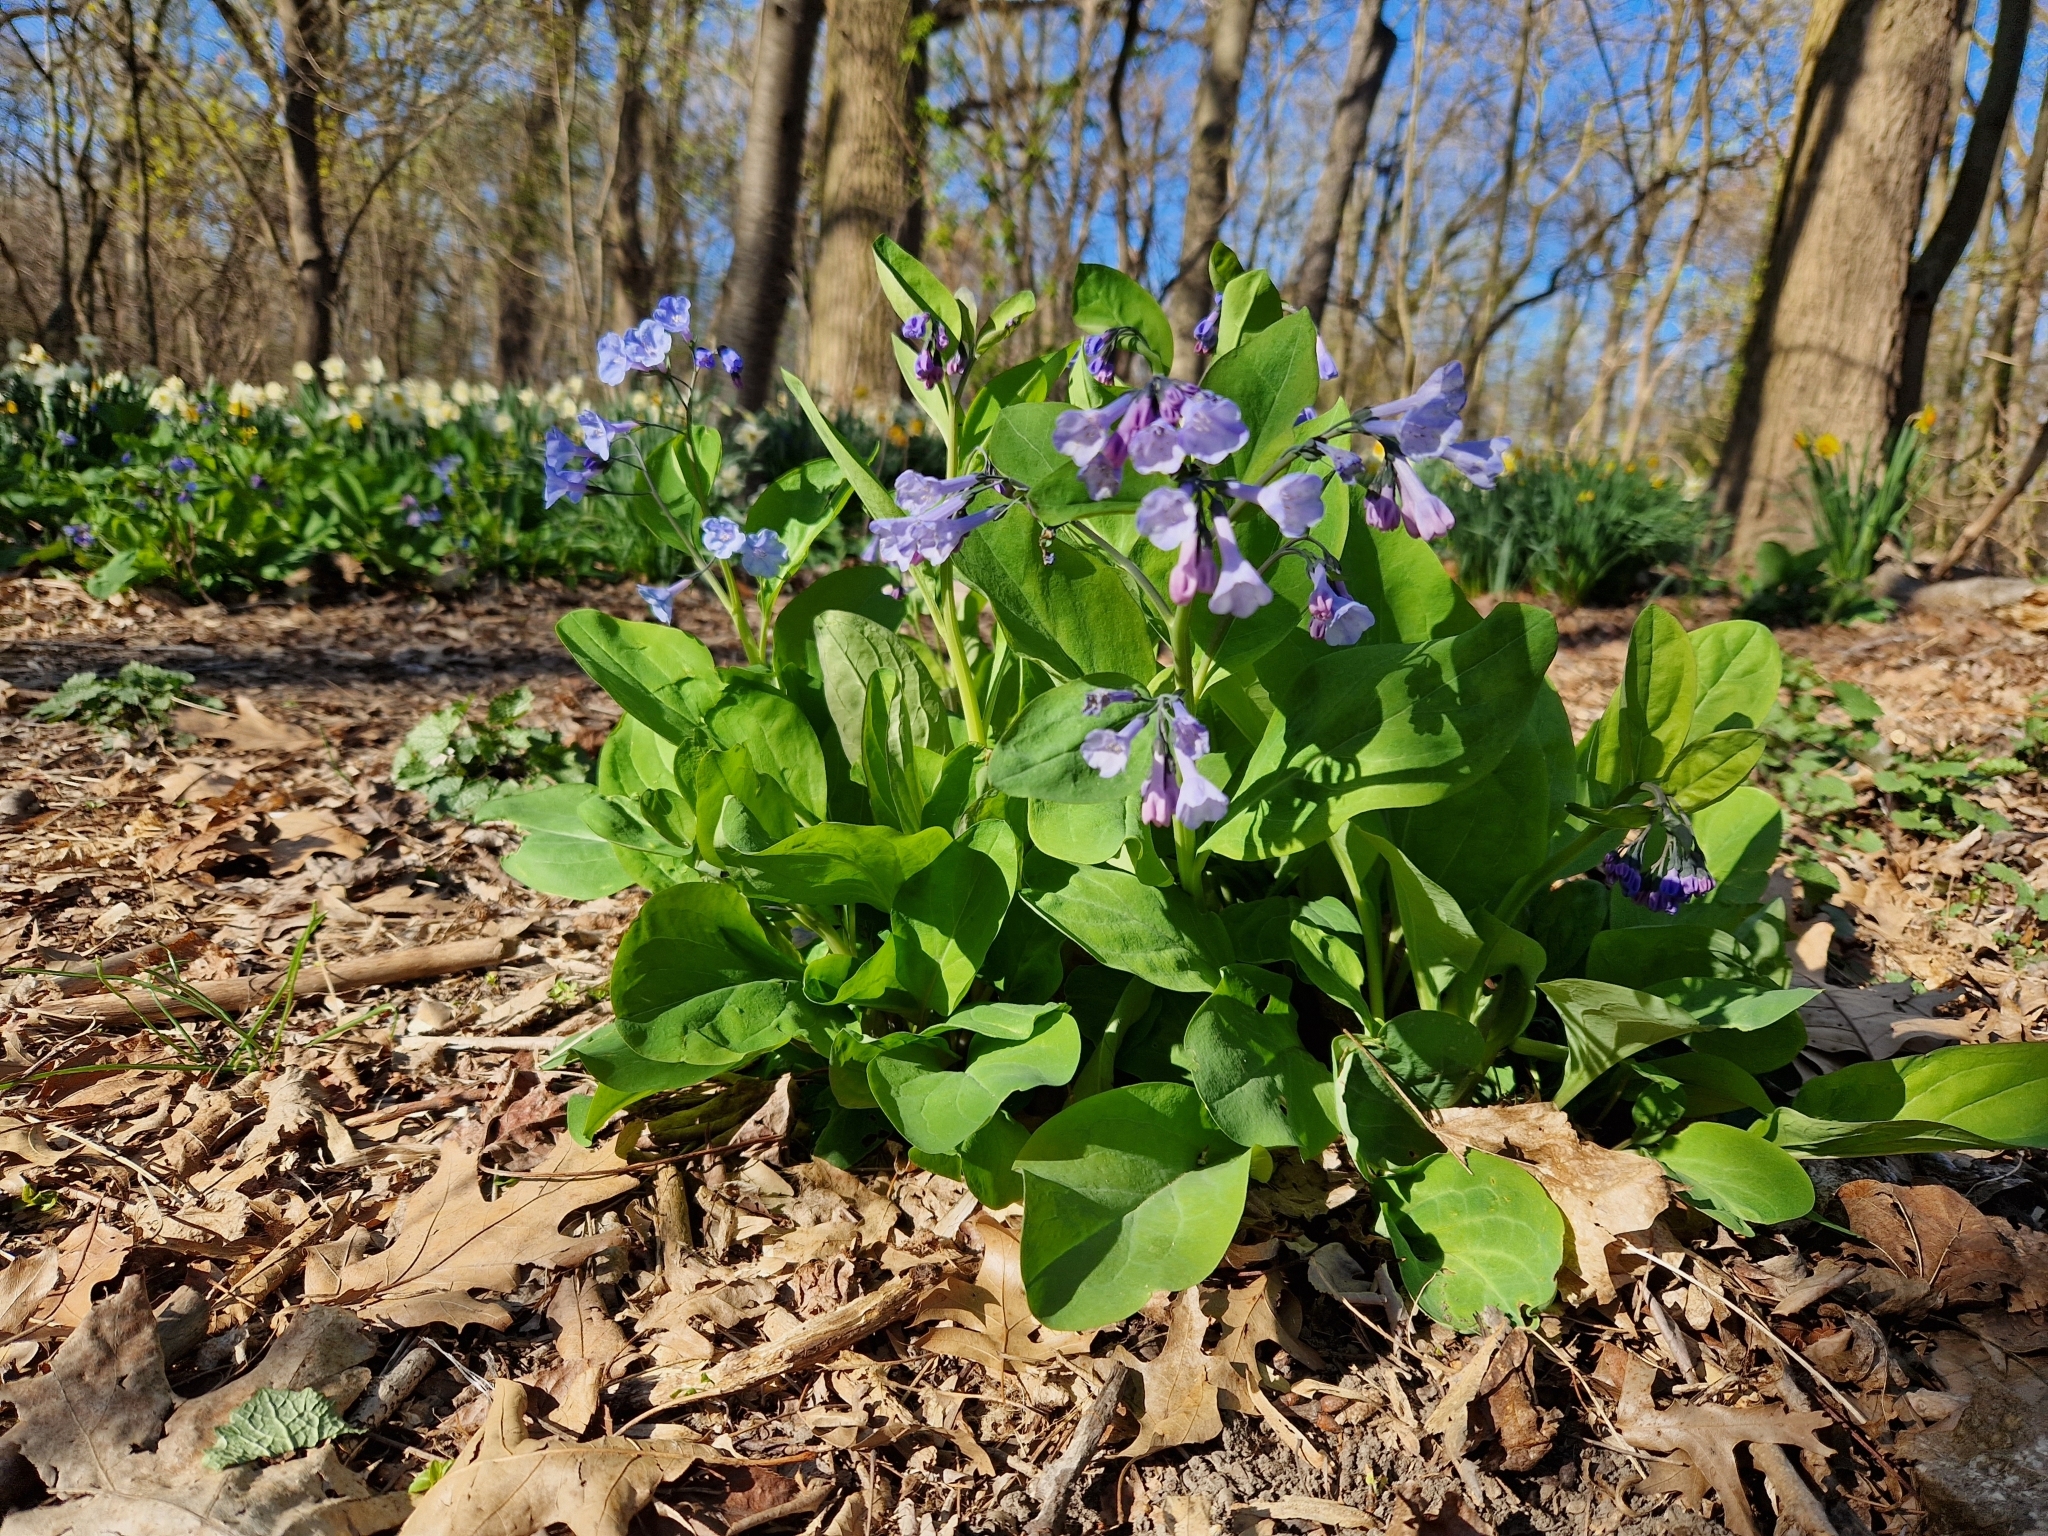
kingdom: Plantae
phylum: Tracheophyta
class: Magnoliopsida
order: Boraginales
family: Boraginaceae
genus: Mertensia
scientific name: Mertensia virginica
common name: Virginia bluebells
